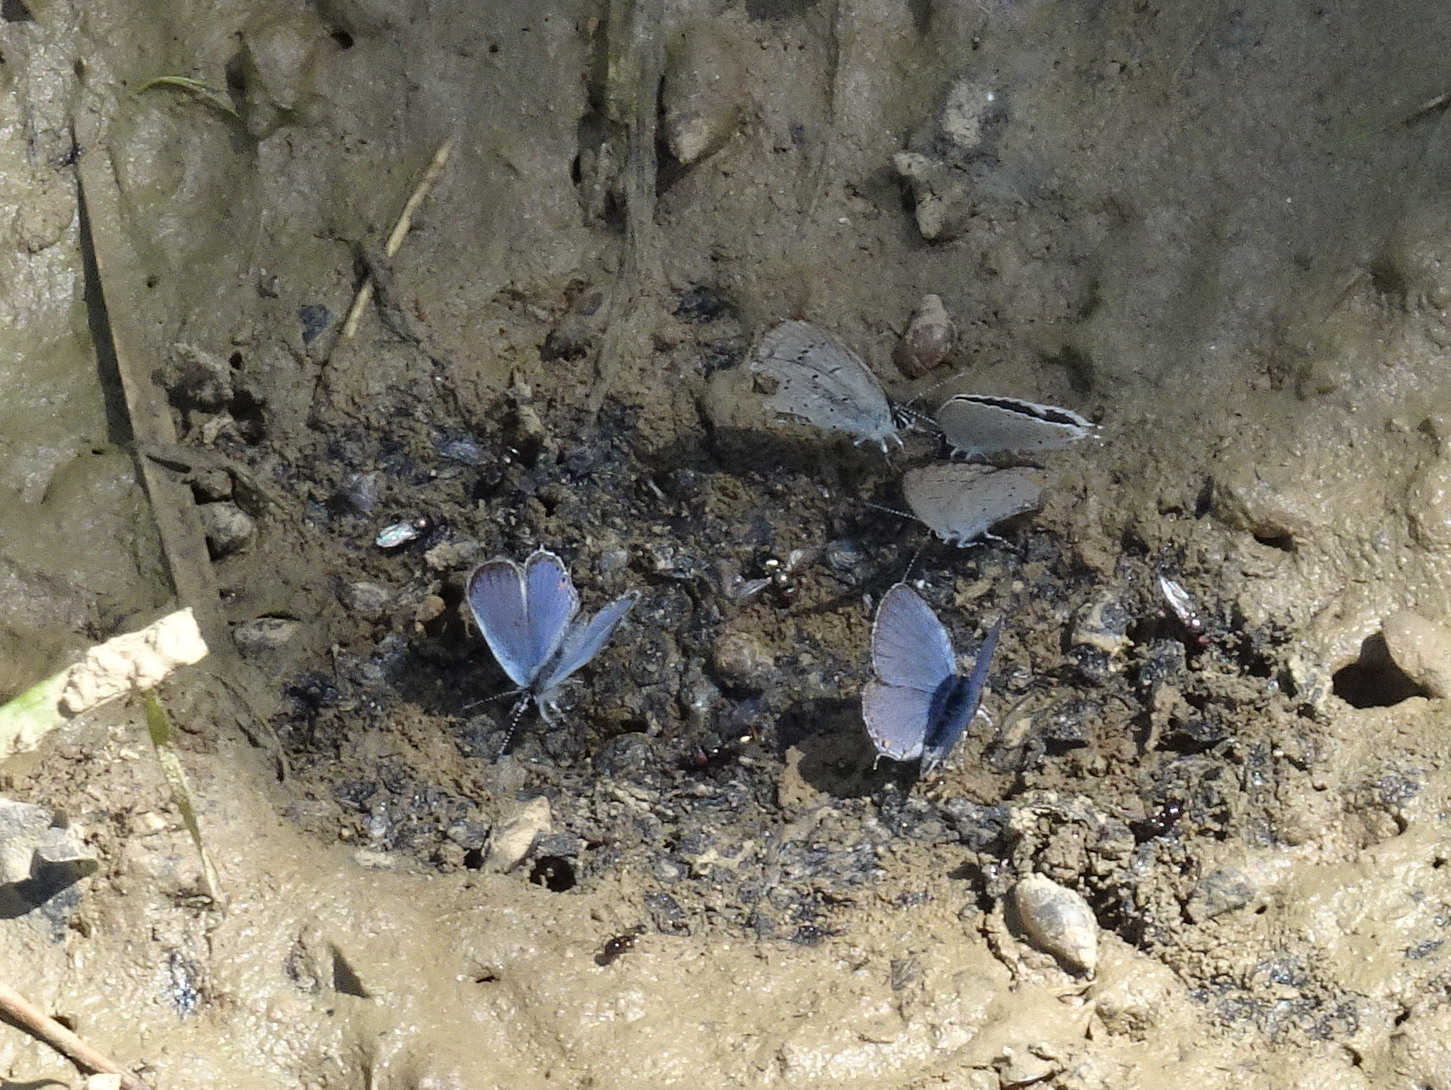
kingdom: Animalia
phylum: Arthropoda
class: Insecta
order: Lepidoptera
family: Lycaenidae
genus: Elkalyce
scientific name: Elkalyce comyntas
